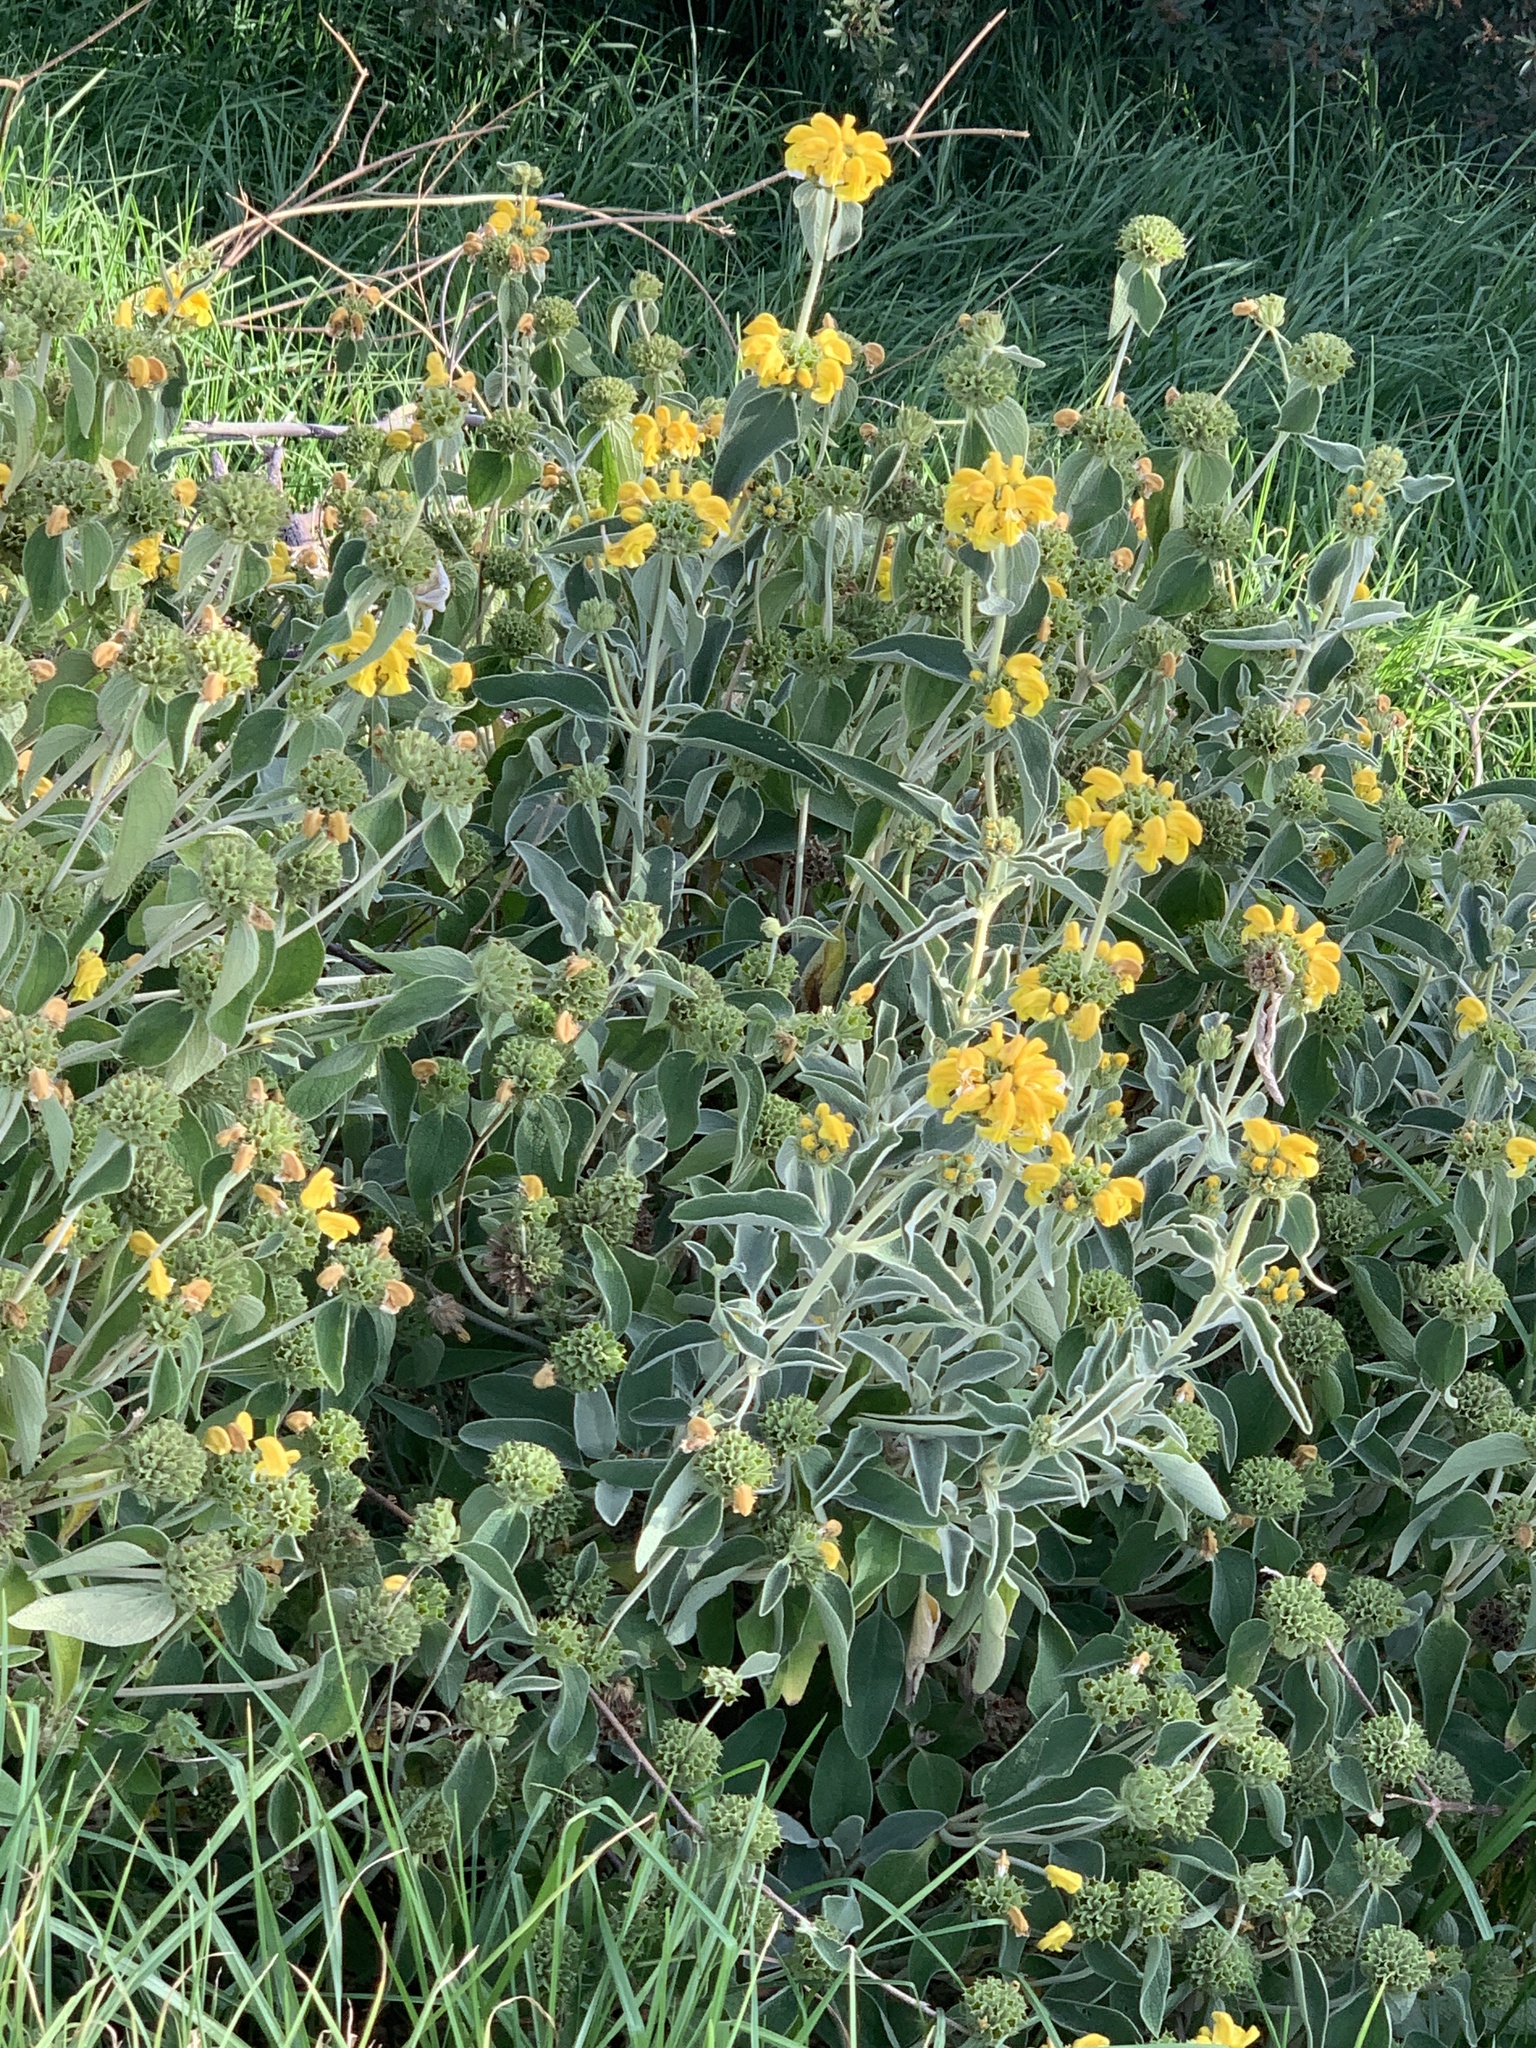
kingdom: Plantae
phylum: Tracheophyta
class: Magnoliopsida
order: Lamiales
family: Lamiaceae
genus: Phlomis
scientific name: Phlomis fruticosa
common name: Jerusalem sage
